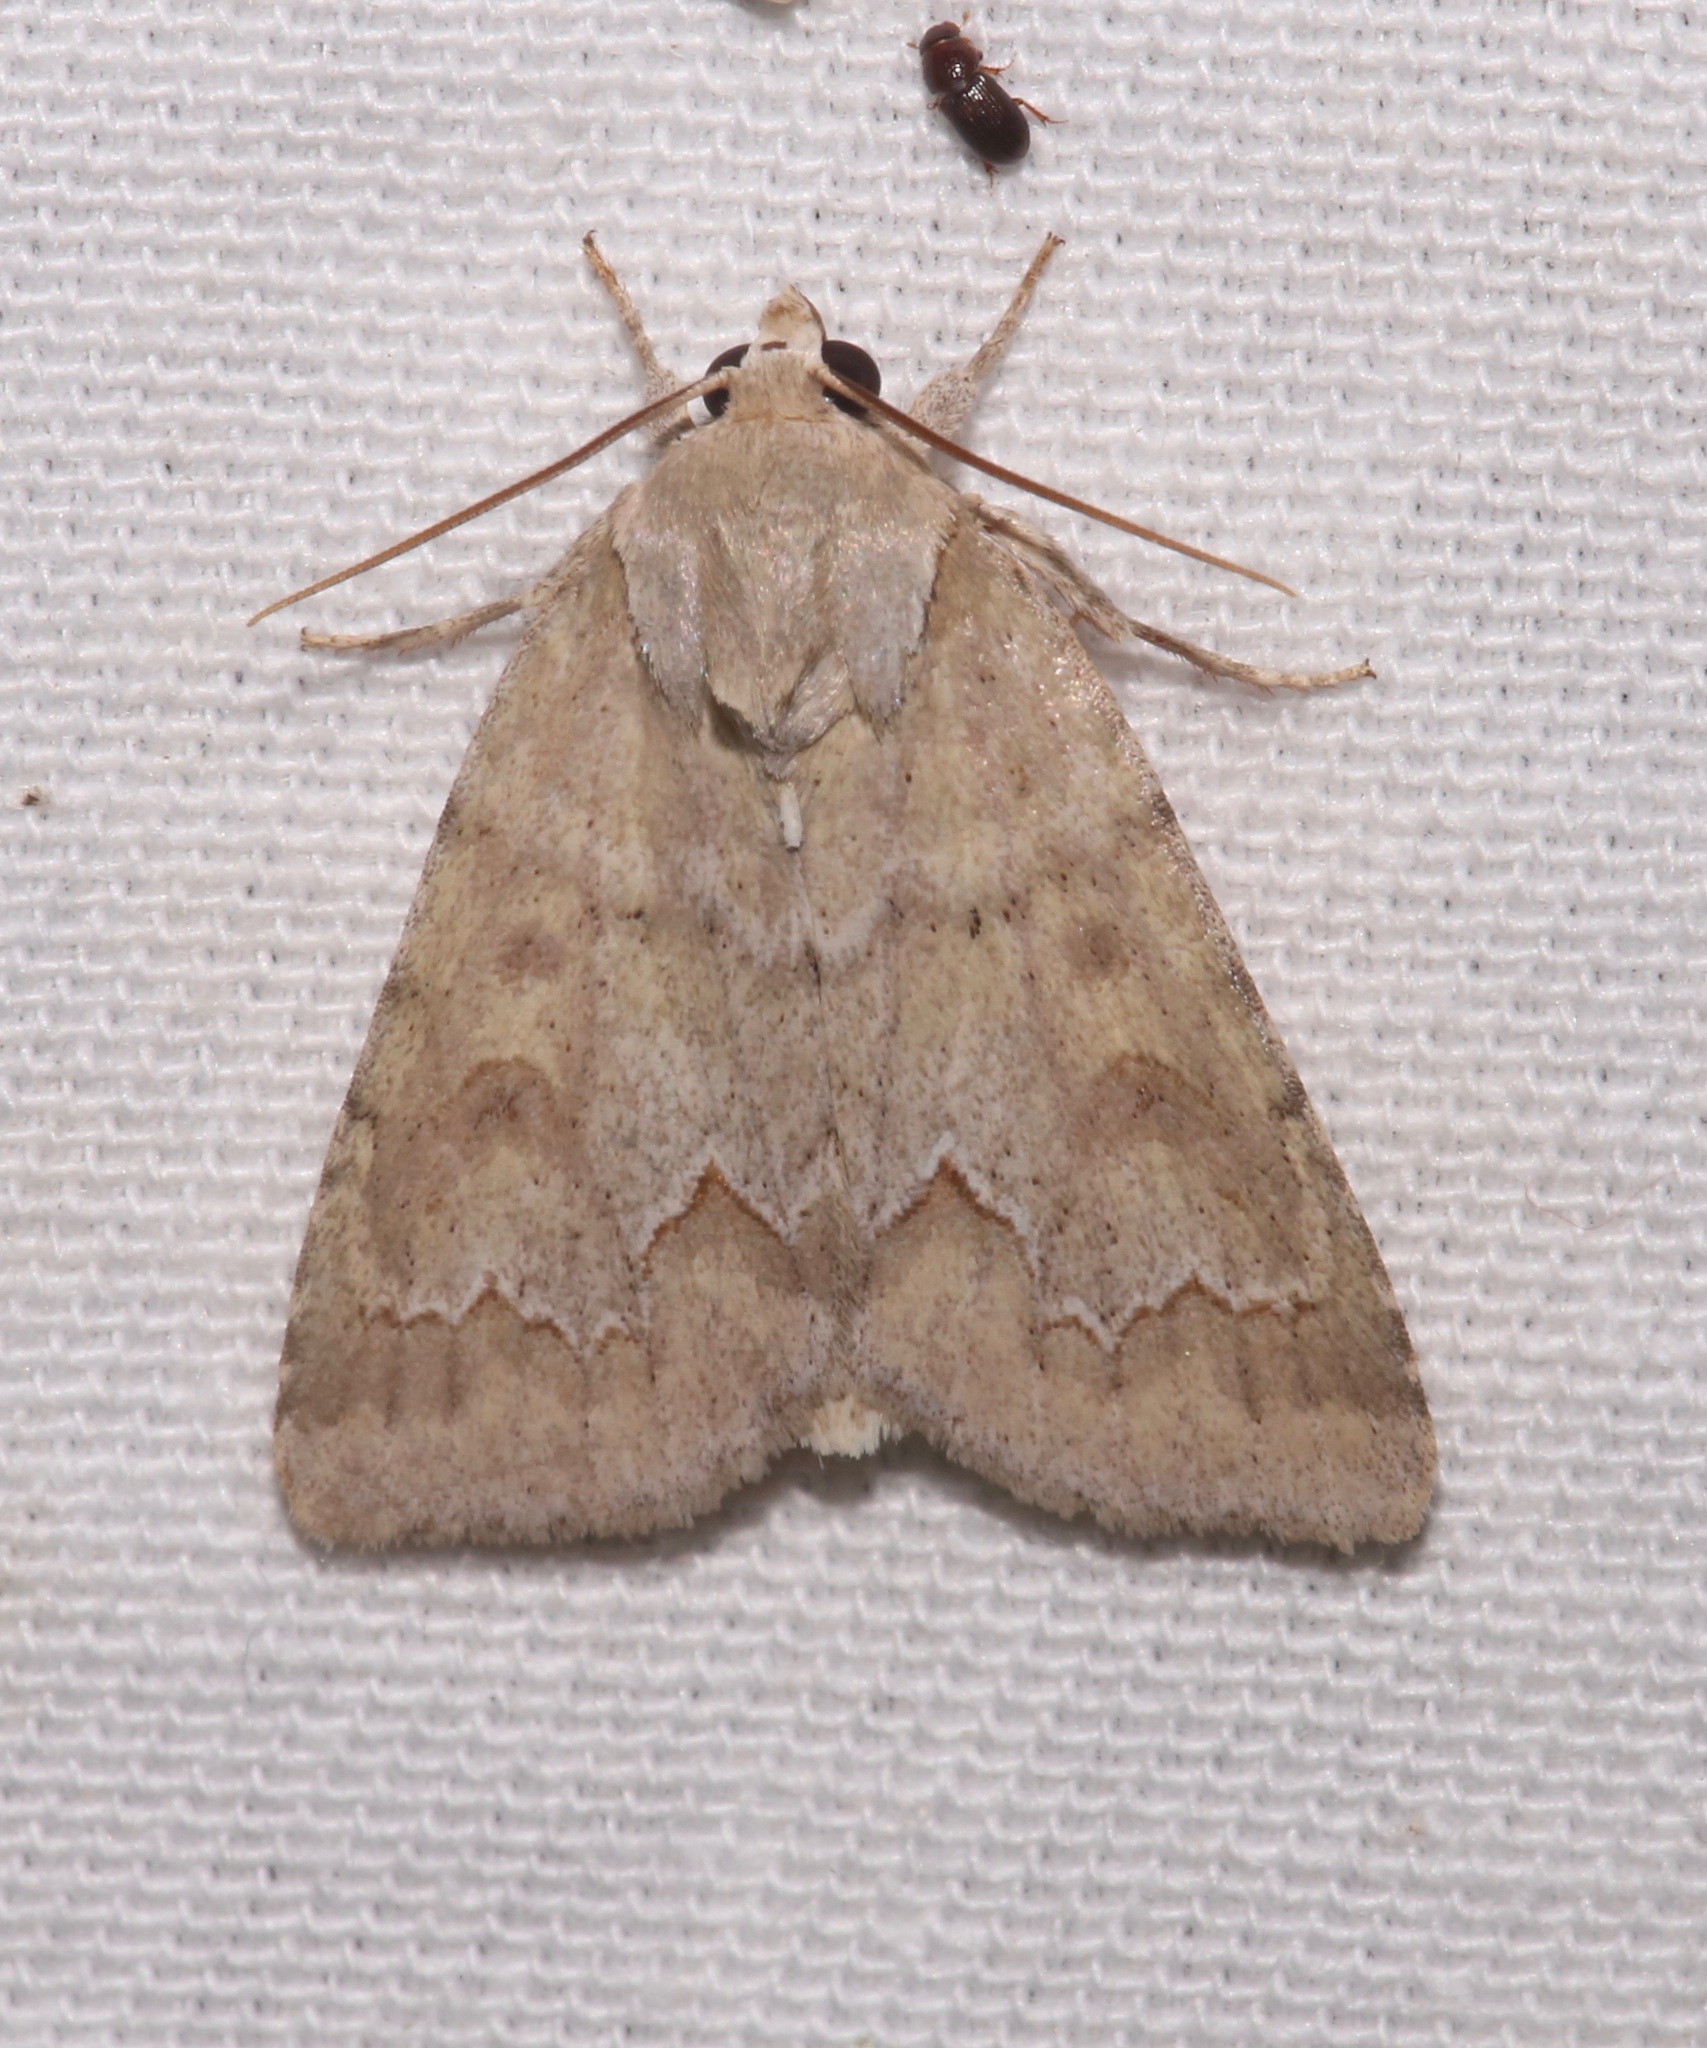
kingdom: Animalia
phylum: Arthropoda
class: Insecta
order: Lepidoptera
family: Noctuidae
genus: Acronicta
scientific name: Acronicta betulae
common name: Birch dagger moth
